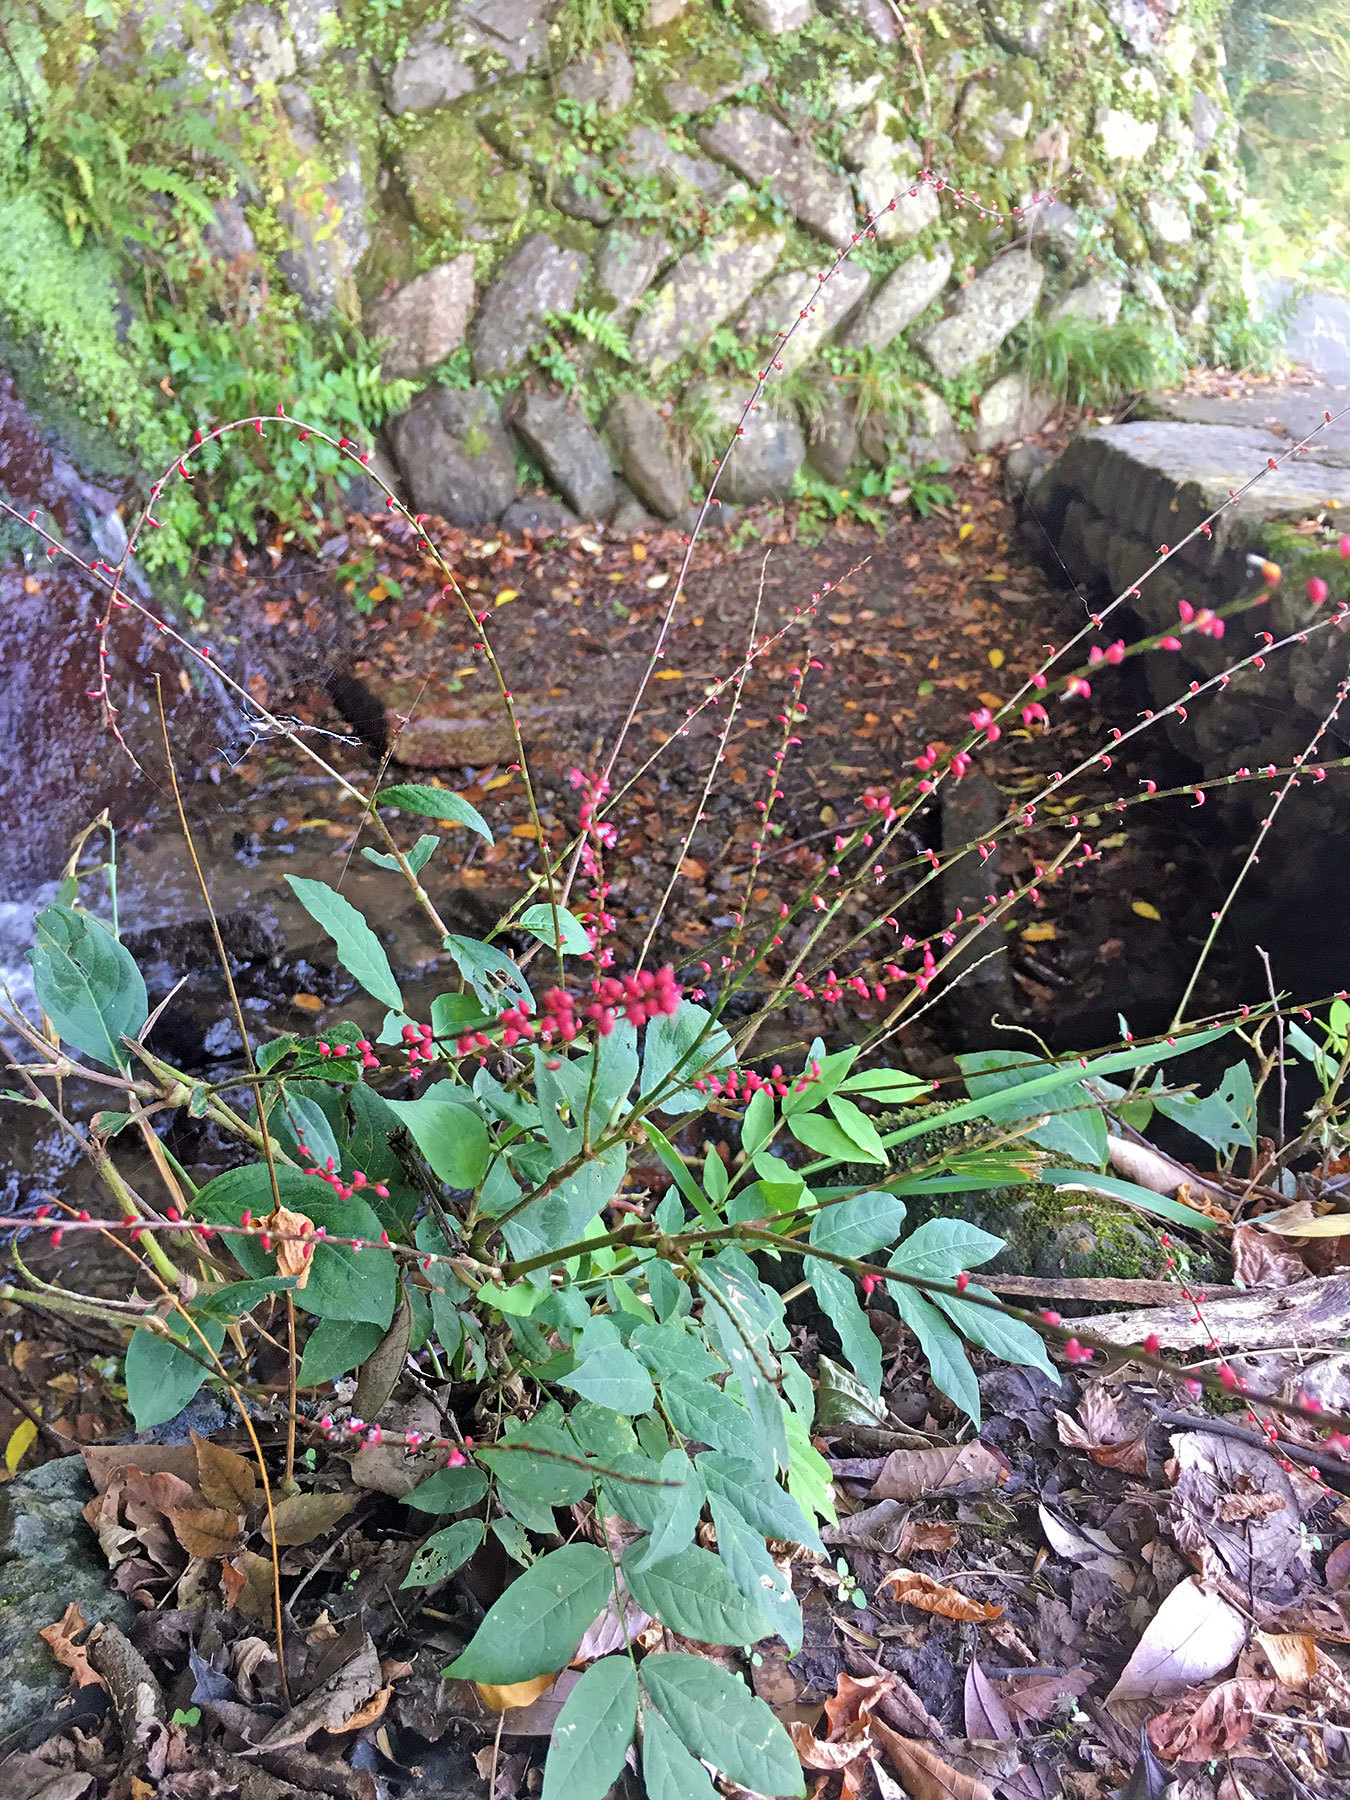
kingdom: Plantae
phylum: Tracheophyta
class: Magnoliopsida
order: Caryophyllales
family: Polygonaceae
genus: Persicaria
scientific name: Persicaria filiformis
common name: Asian jumpseed
